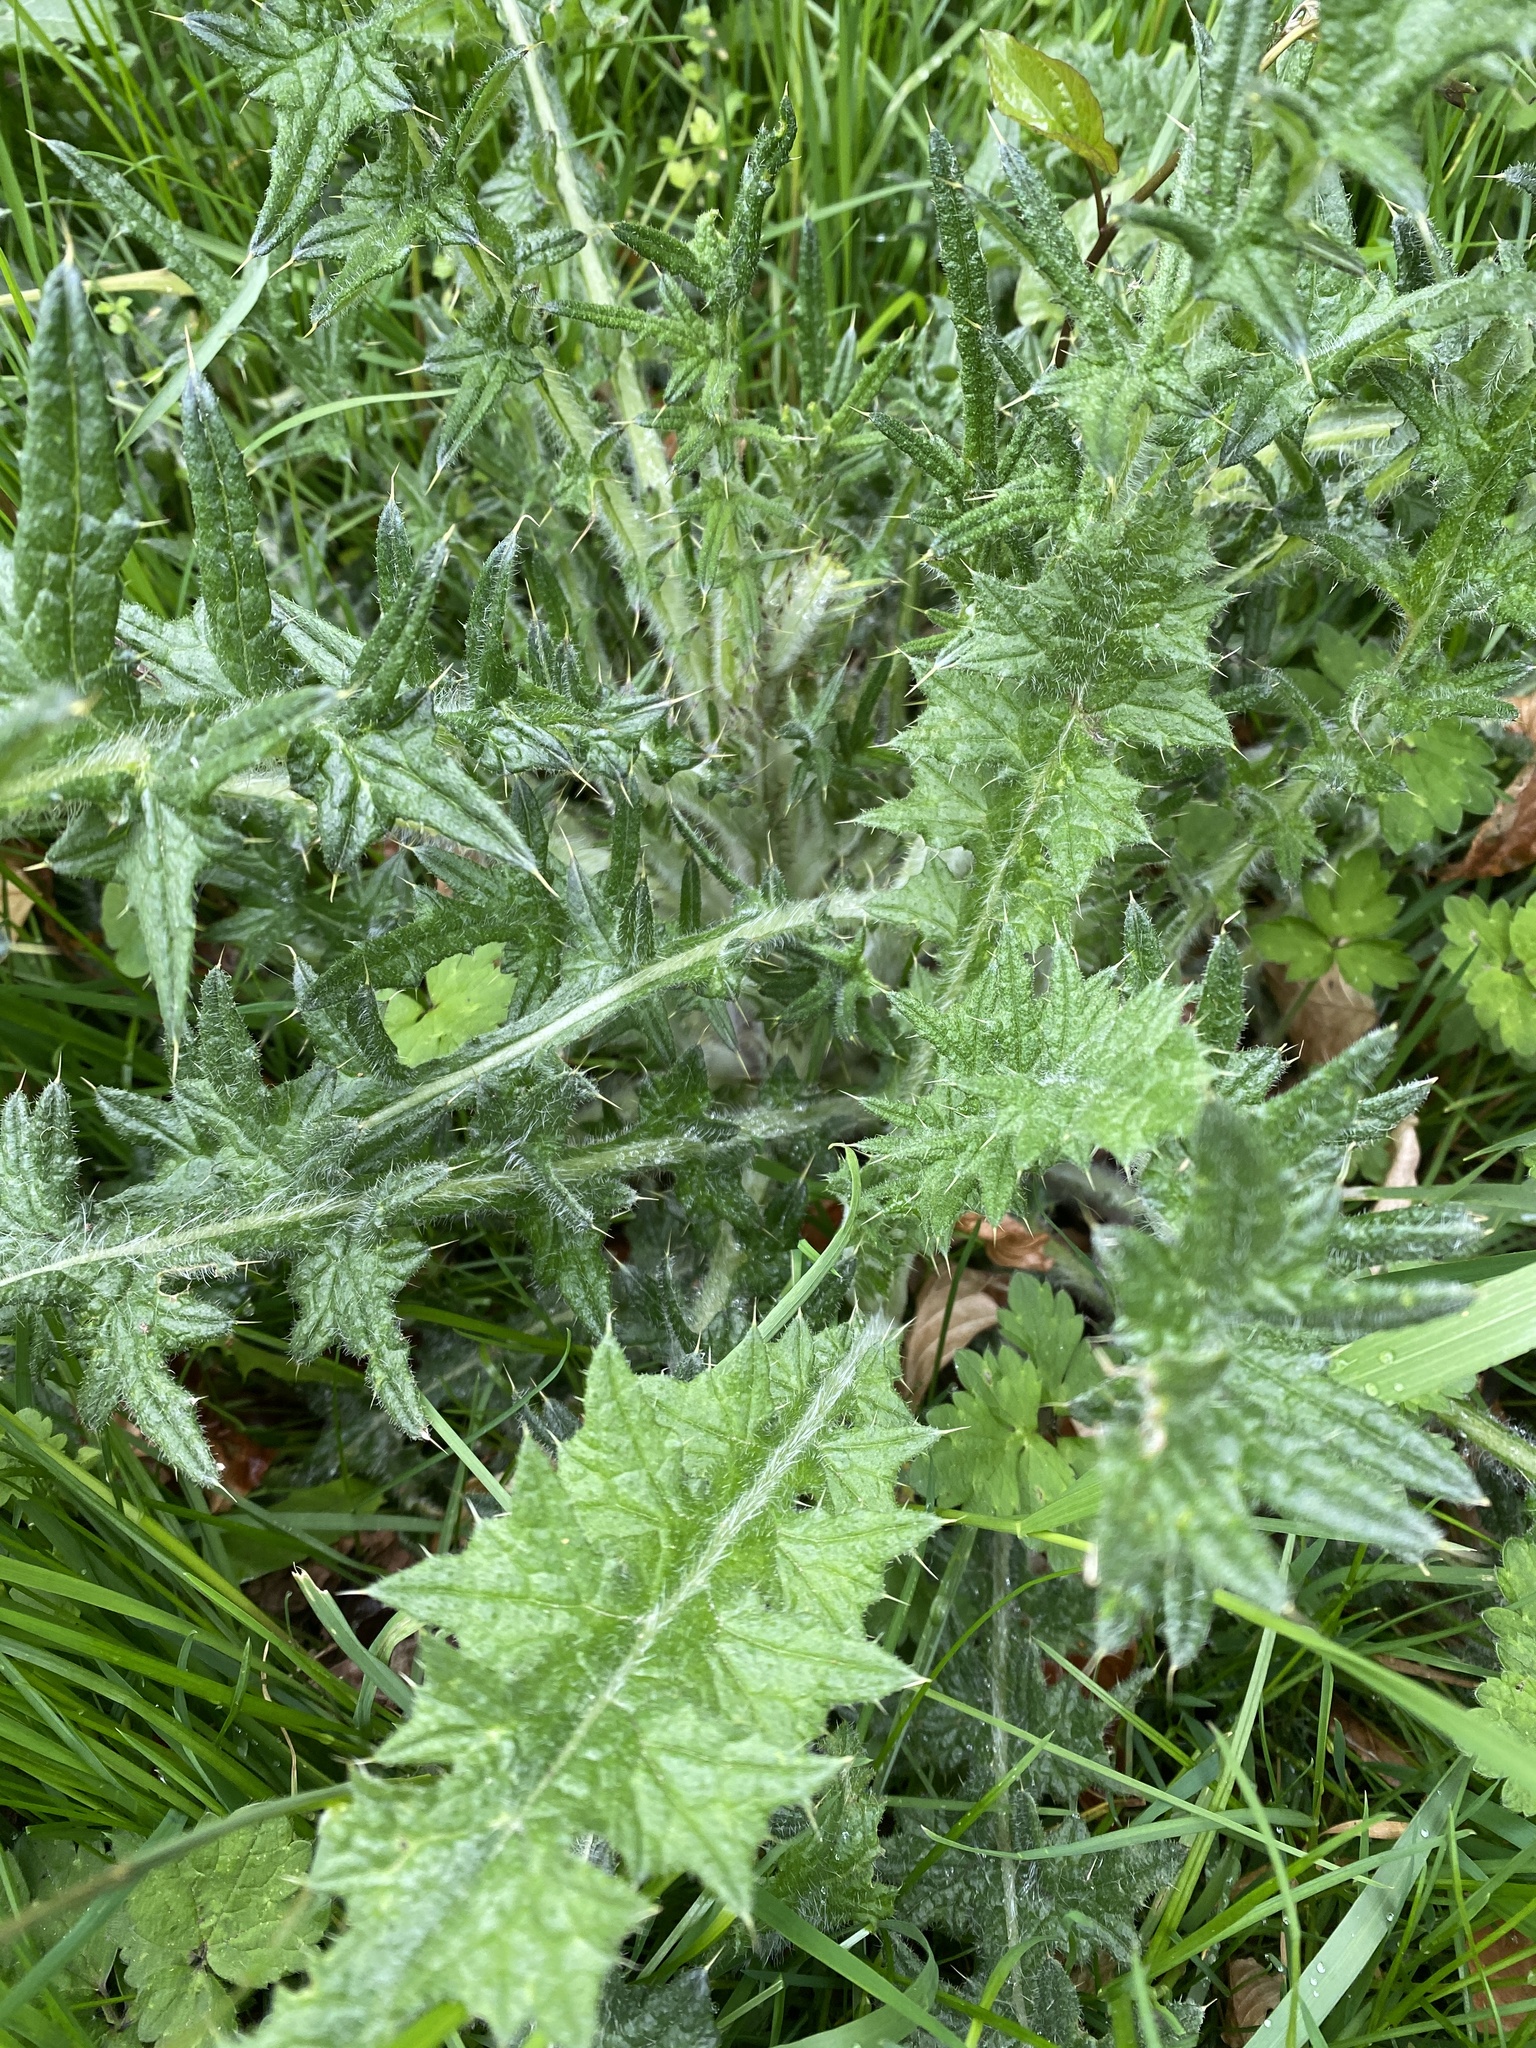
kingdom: Plantae
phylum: Tracheophyta
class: Magnoliopsida
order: Asterales
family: Asteraceae
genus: Cirsium
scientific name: Cirsium vulgare
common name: Bull thistle
